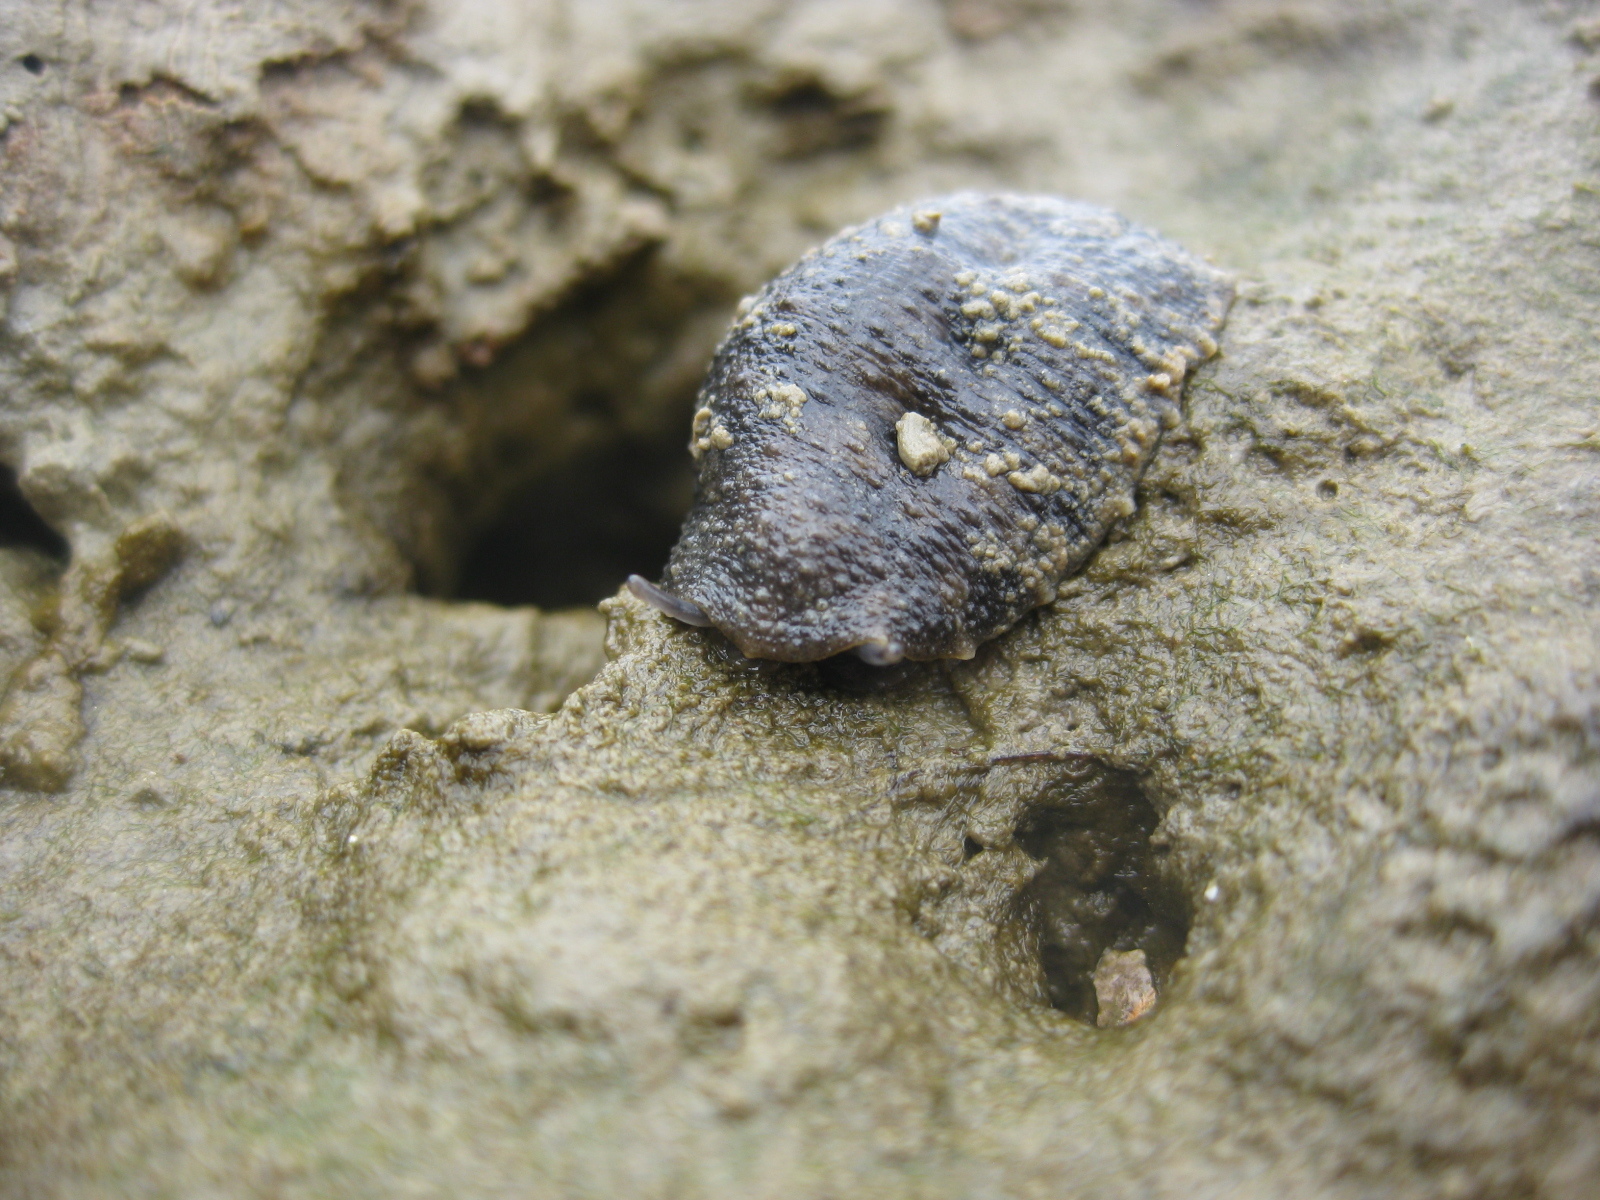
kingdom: Animalia
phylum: Mollusca
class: Gastropoda
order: Systellommatophora
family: Onchidiidae
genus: Onchidella
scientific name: Onchidella nigricans
